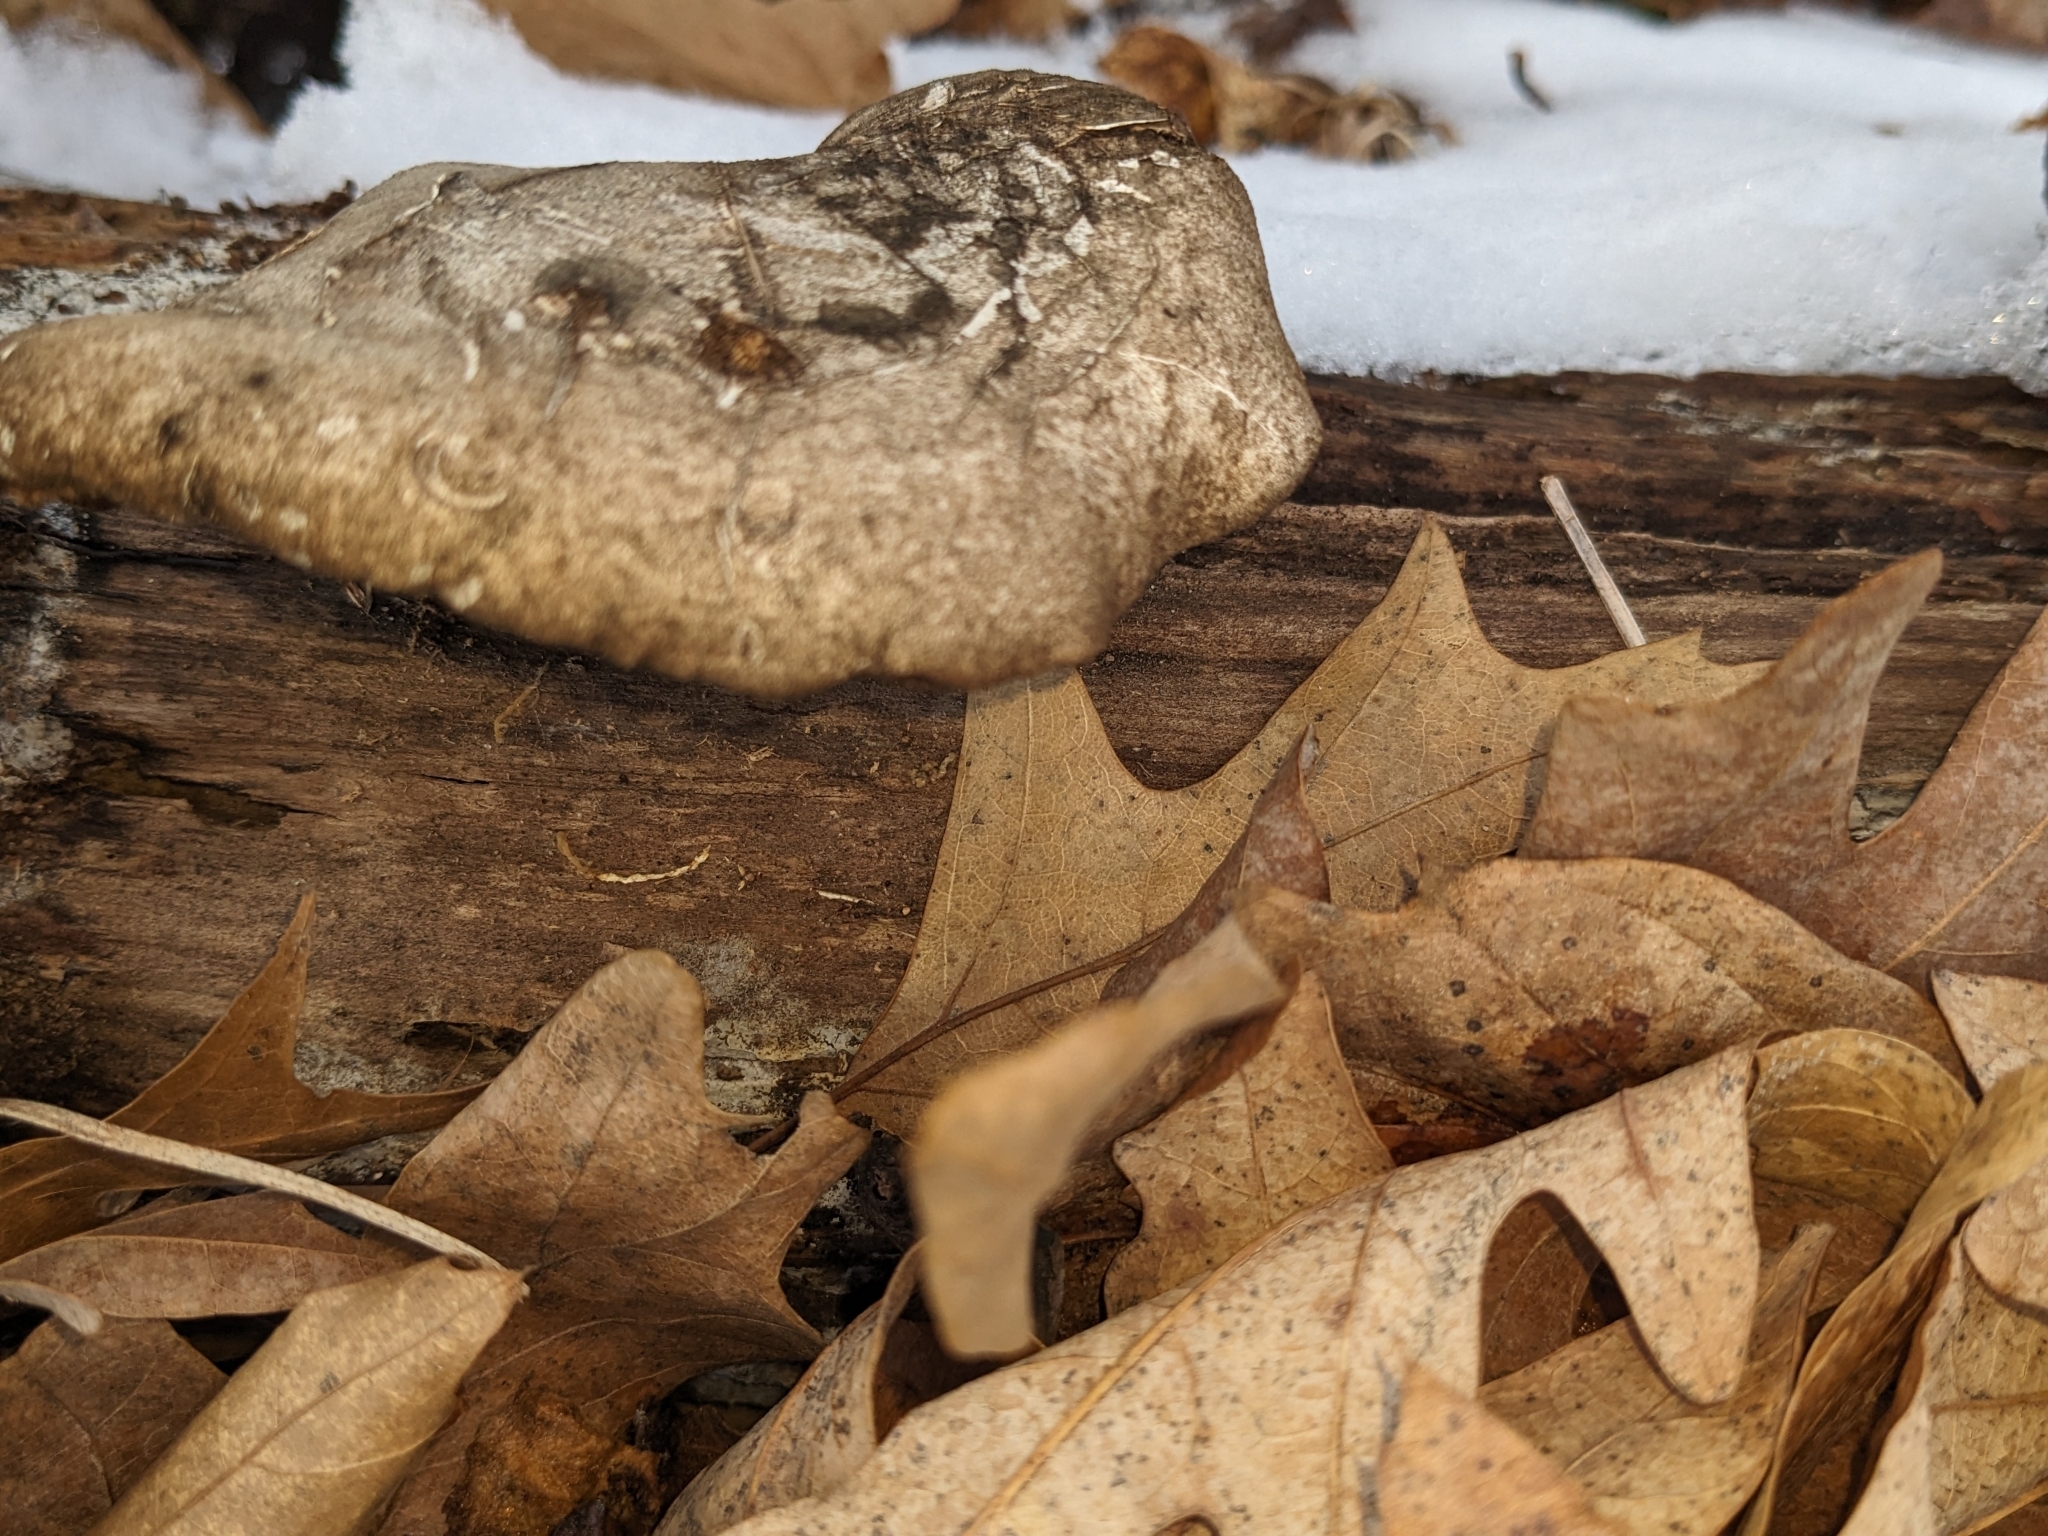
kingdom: Fungi
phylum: Basidiomycota
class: Agaricomycetes
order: Polyporales
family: Fomitopsidaceae
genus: Fomitopsis
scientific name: Fomitopsis betulina
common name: Birch polypore
